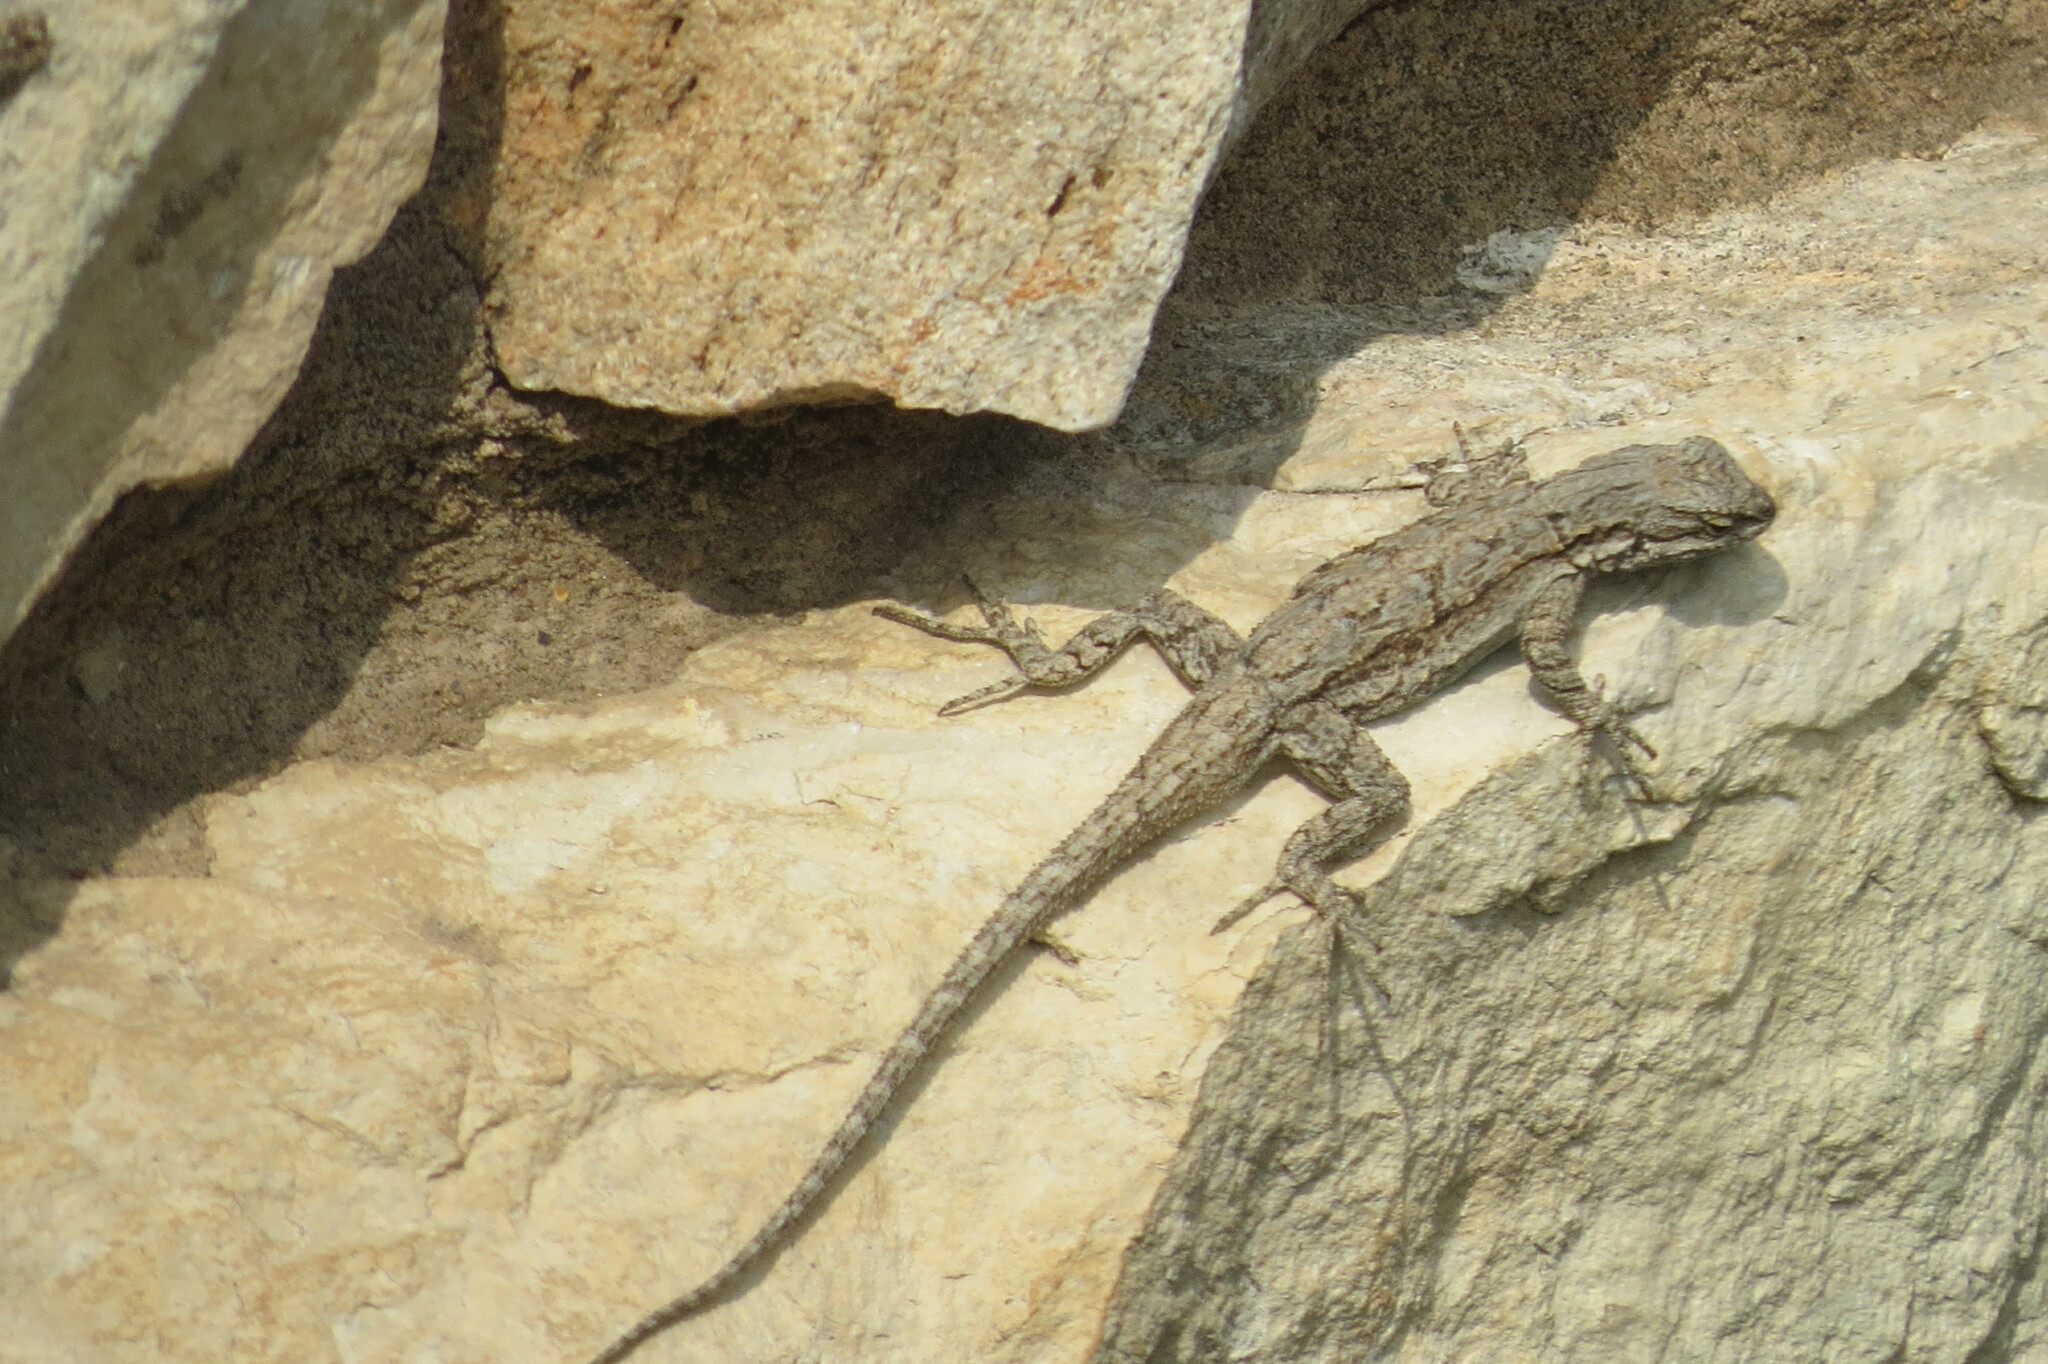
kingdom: Animalia
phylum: Chordata
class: Squamata
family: Phrynosomatidae
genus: Urosaurus
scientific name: Urosaurus ornatus
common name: Ornate tree lizard
